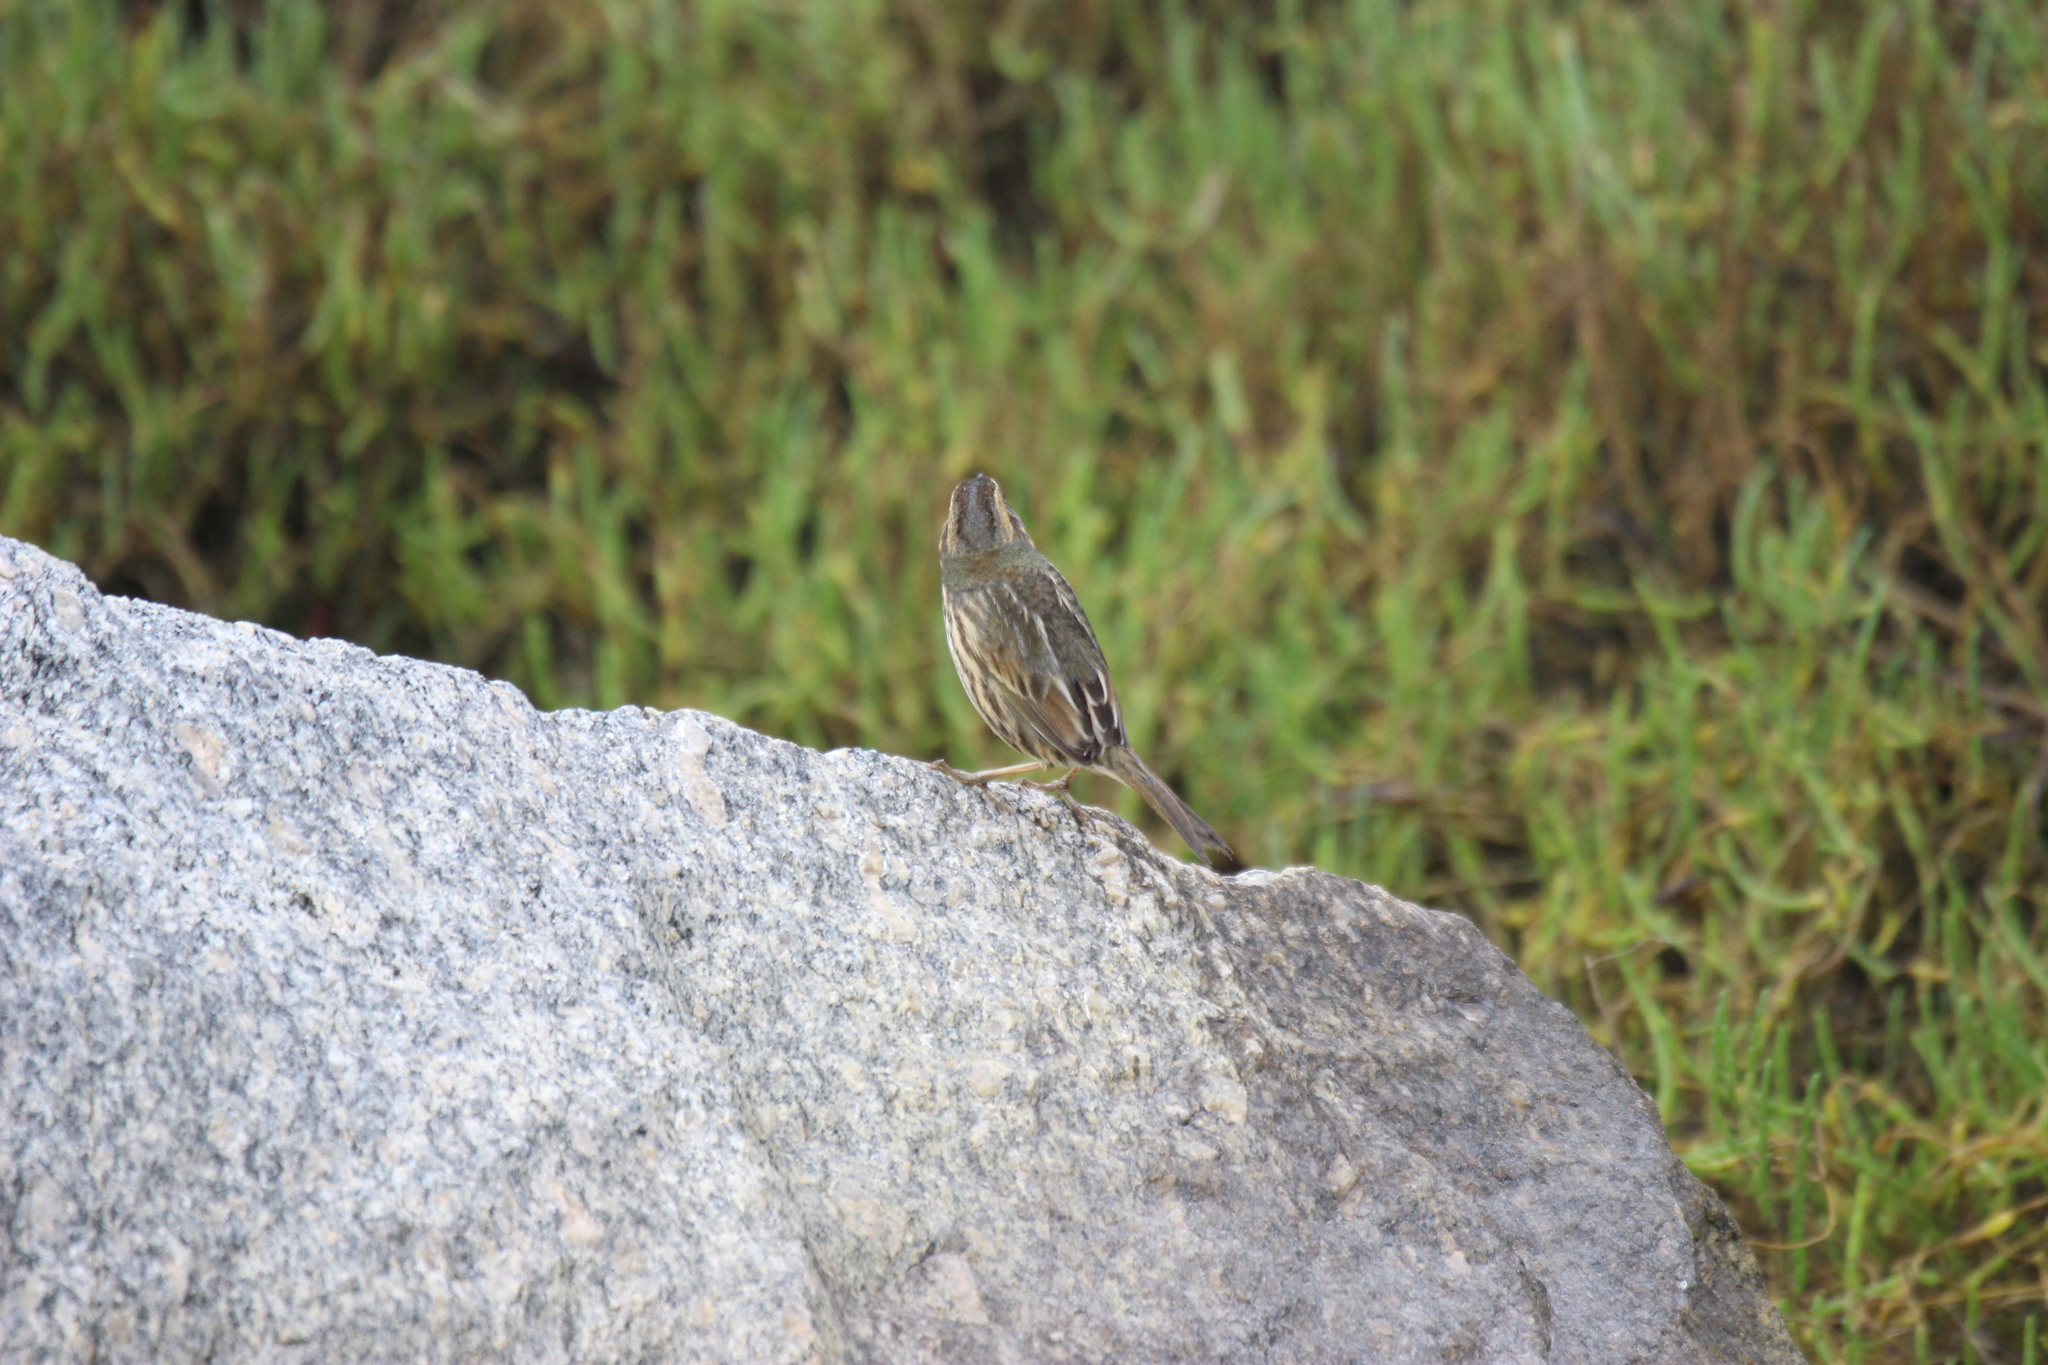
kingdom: Animalia
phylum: Chordata
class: Aves
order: Passeriformes
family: Passerellidae
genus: Ammospiza
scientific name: Ammospiza caudacuta
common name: Saltmarsh sparrow
